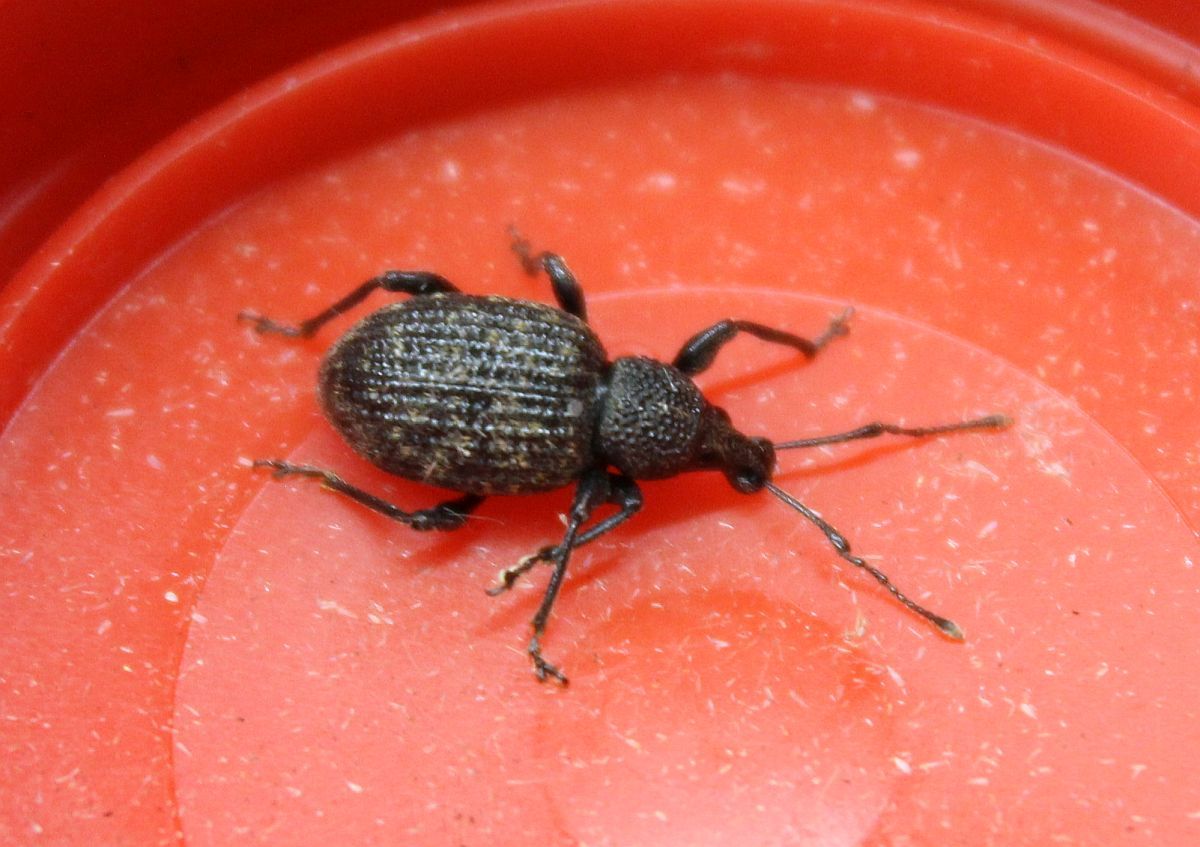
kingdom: Animalia
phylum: Arthropoda
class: Insecta
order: Coleoptera
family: Curculionidae
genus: Otiorhynchus
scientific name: Otiorhynchus sulcatus
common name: Black vine weevil
